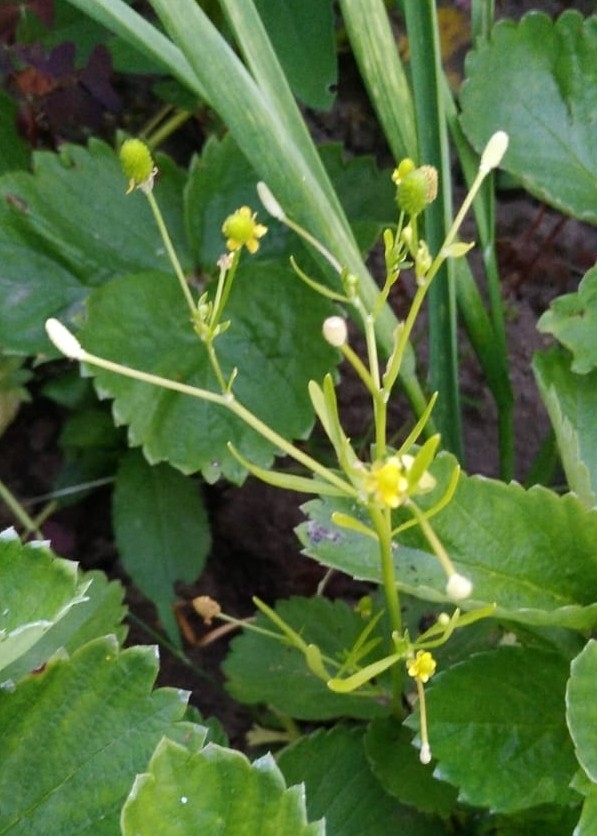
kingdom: Plantae
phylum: Tracheophyta
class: Magnoliopsida
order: Ranunculales
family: Ranunculaceae
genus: Ranunculus
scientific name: Ranunculus sceleratus
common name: Celery-leaved buttercup
